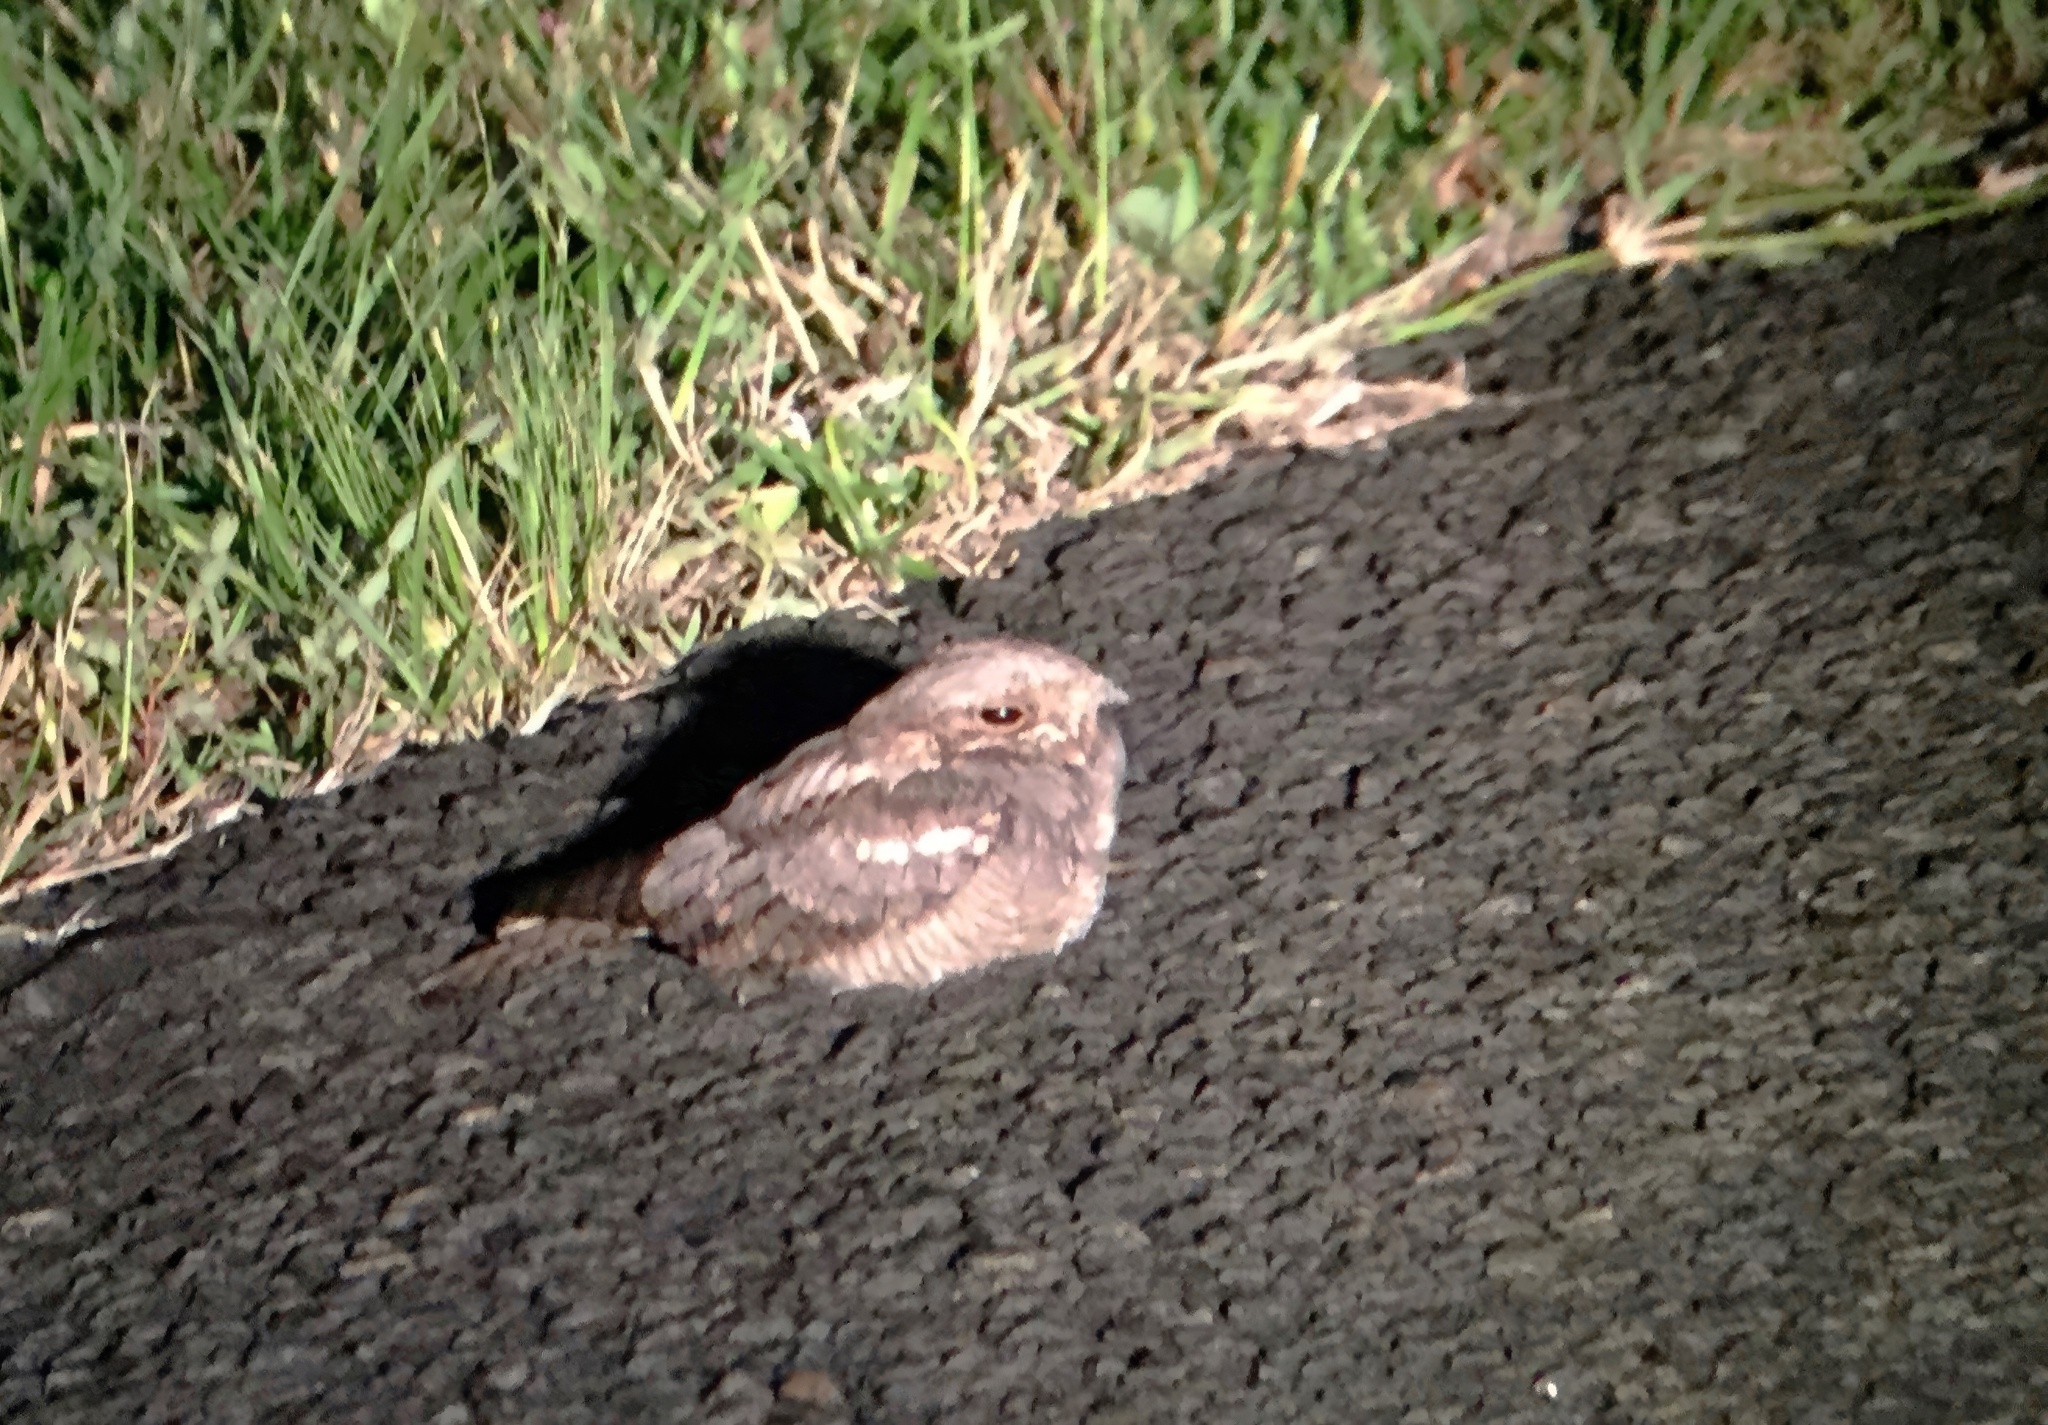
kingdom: Animalia
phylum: Chordata
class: Aves
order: Caprimulgiformes
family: Caprimulgidae
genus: Caprimulgus
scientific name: Caprimulgus europaeus
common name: European nightjar
